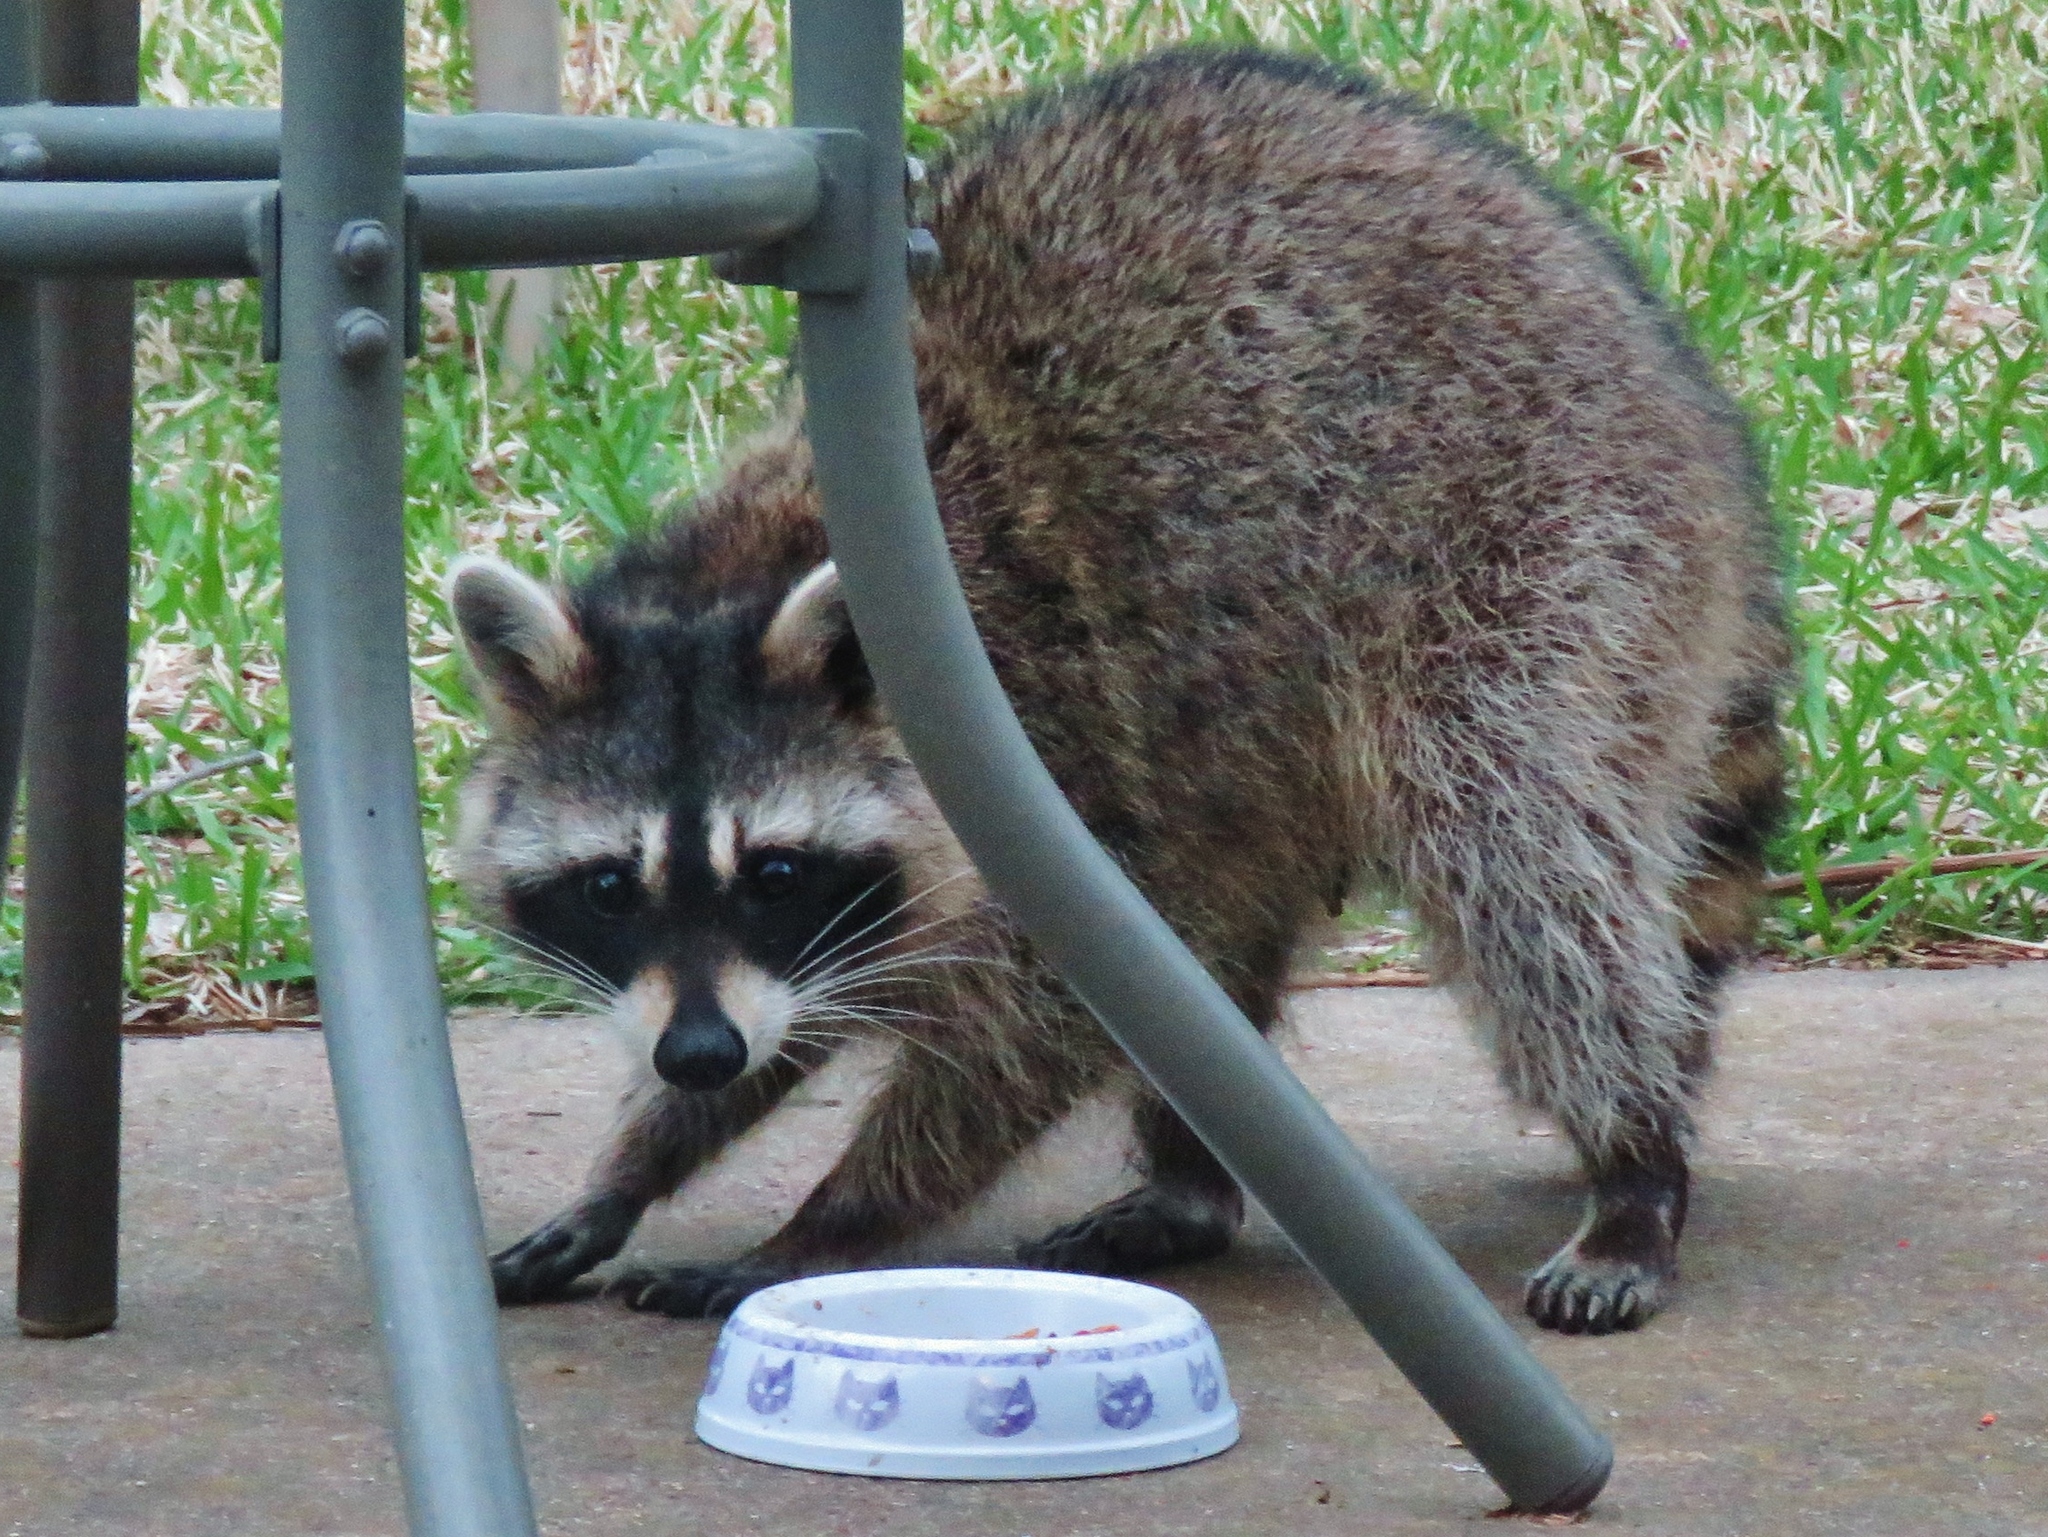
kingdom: Animalia
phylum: Chordata
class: Mammalia
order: Carnivora
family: Procyonidae
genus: Procyon
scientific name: Procyon lotor
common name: Raccoon
